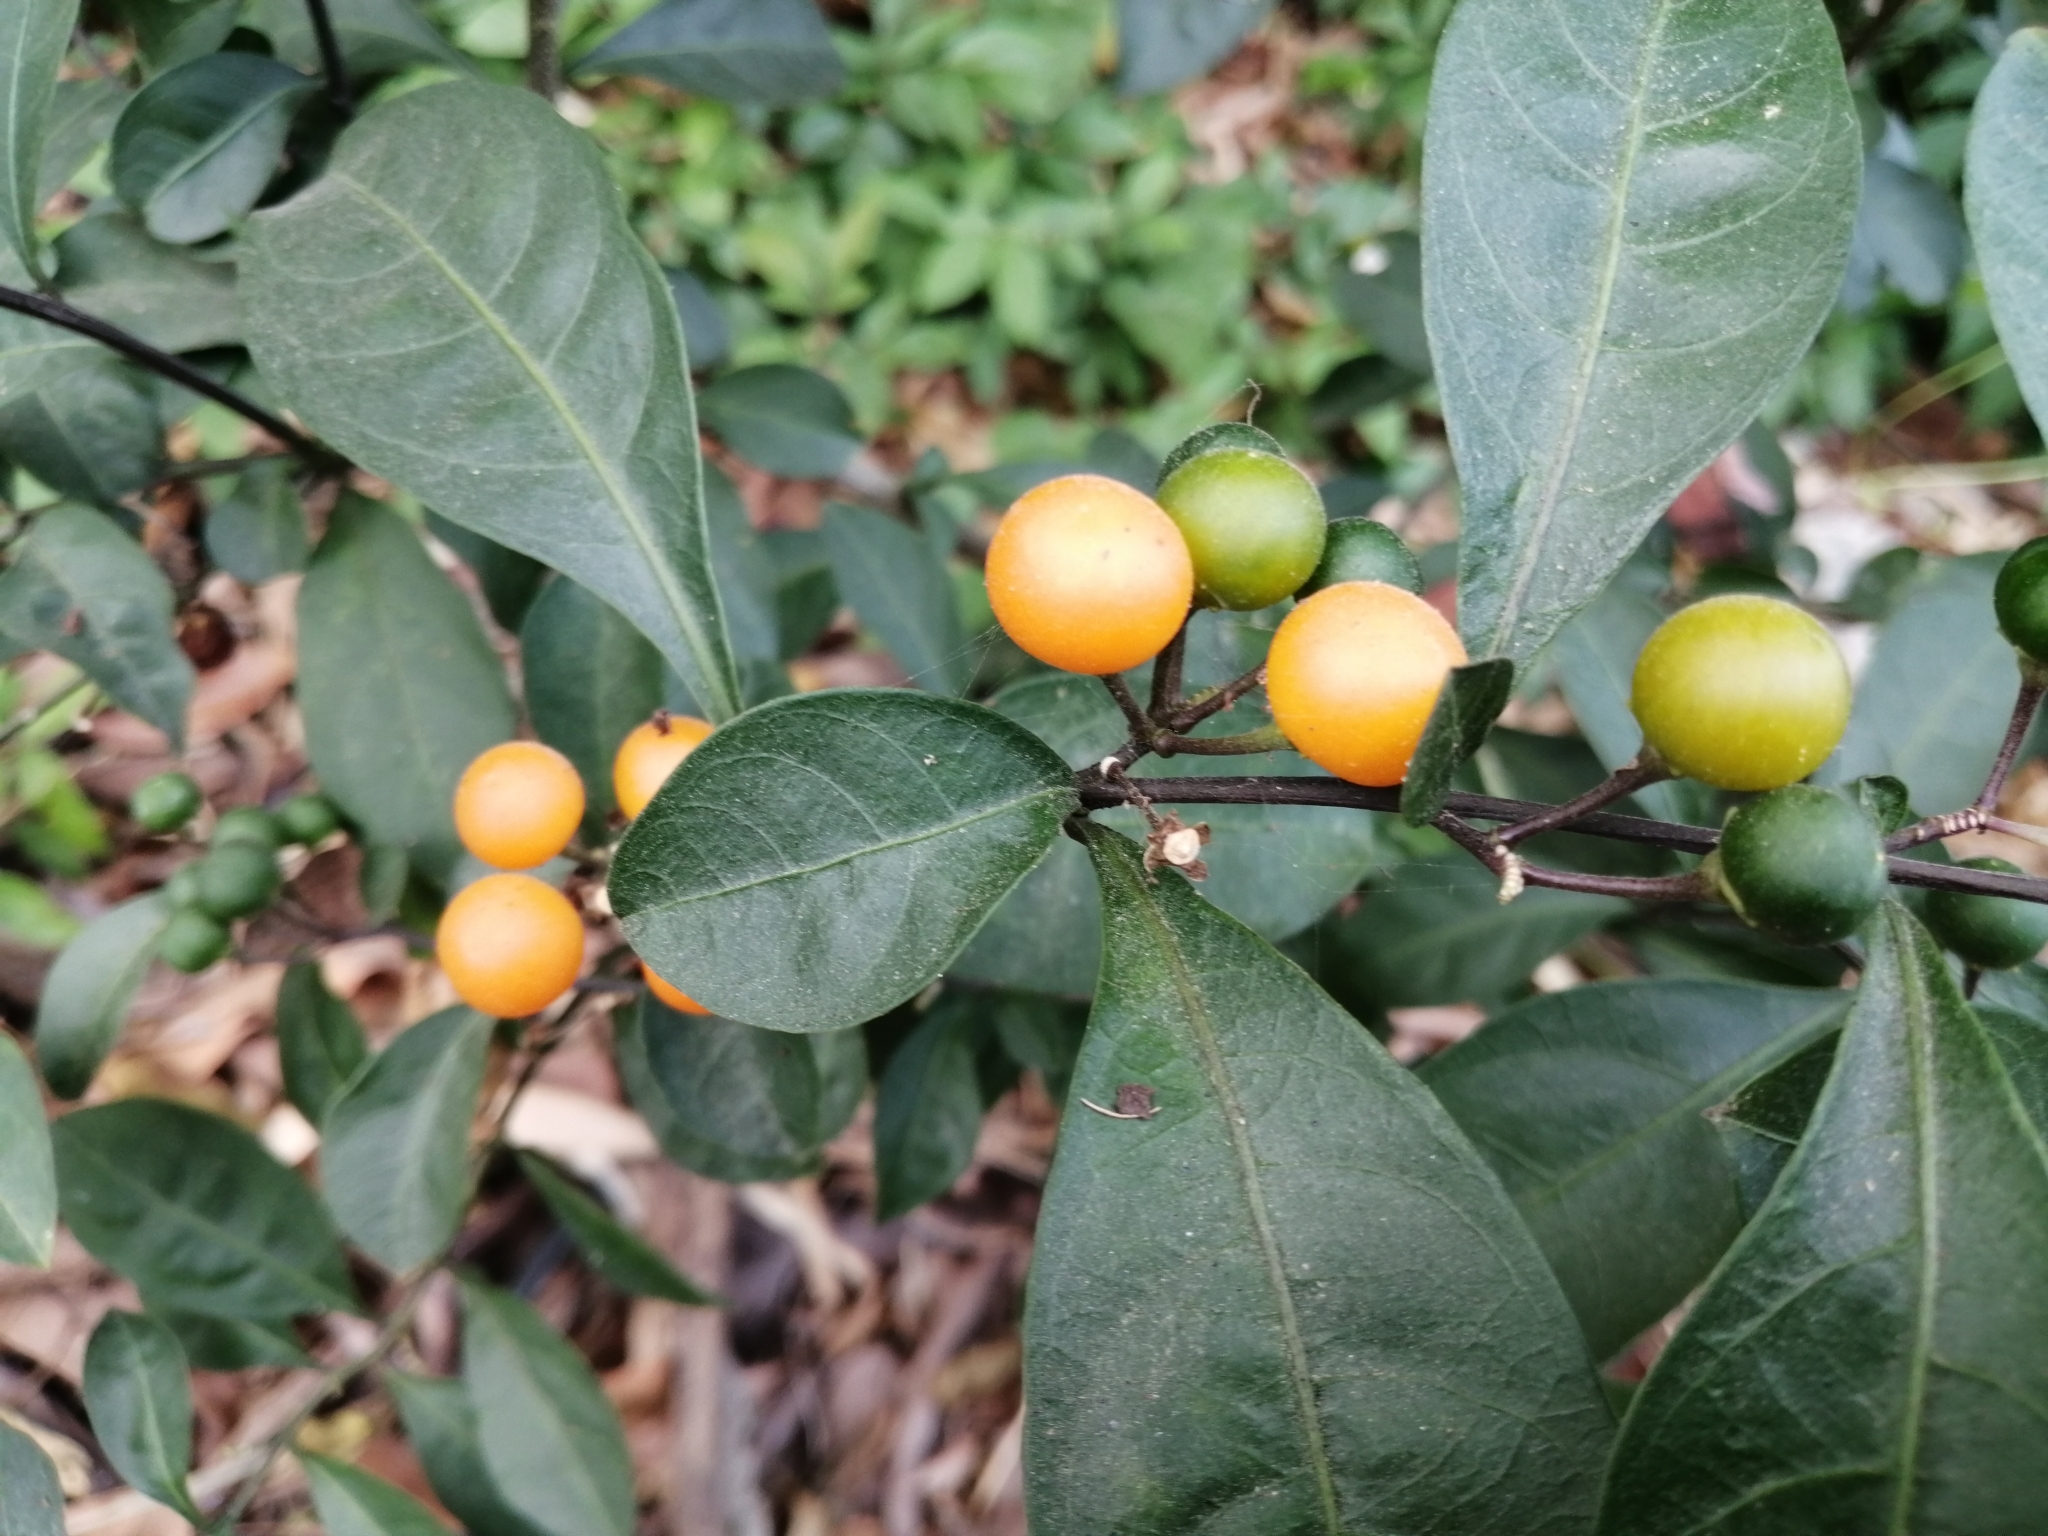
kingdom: Plantae
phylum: Tracheophyta
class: Magnoliopsida
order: Solanales
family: Solanaceae
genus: Solanum
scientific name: Solanum diphyllum
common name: Twoleaf nightshade
